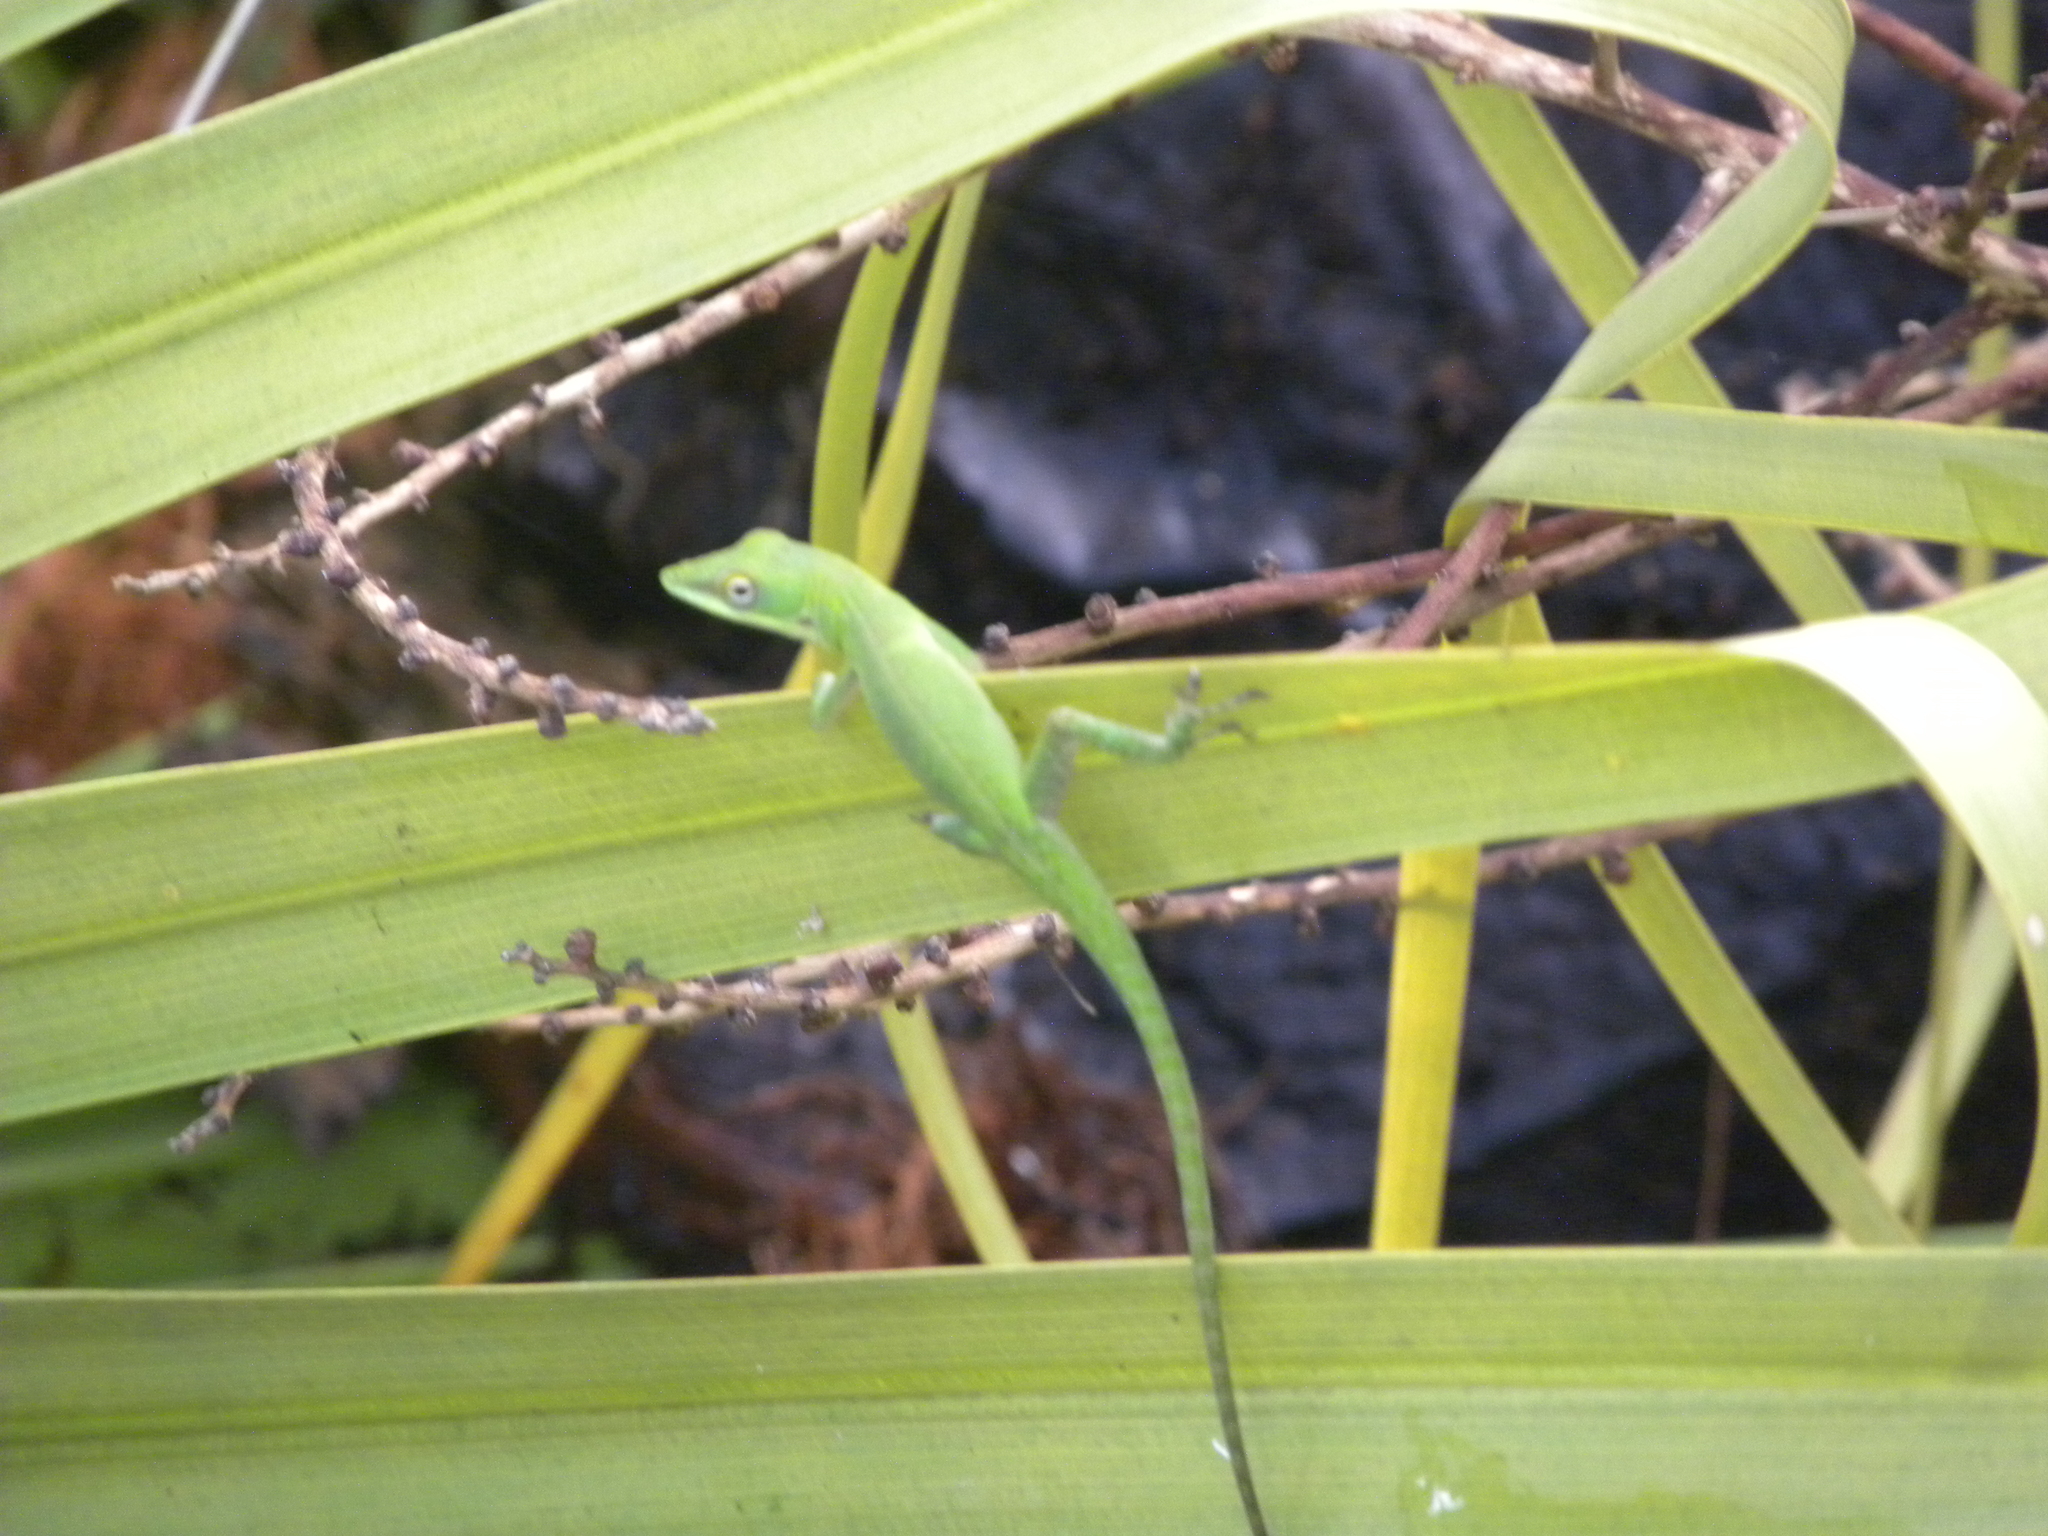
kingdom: Animalia
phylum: Chordata
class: Squamata
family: Dactyloidae
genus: Anolis
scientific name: Anolis allisoni
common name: Allison's anole
